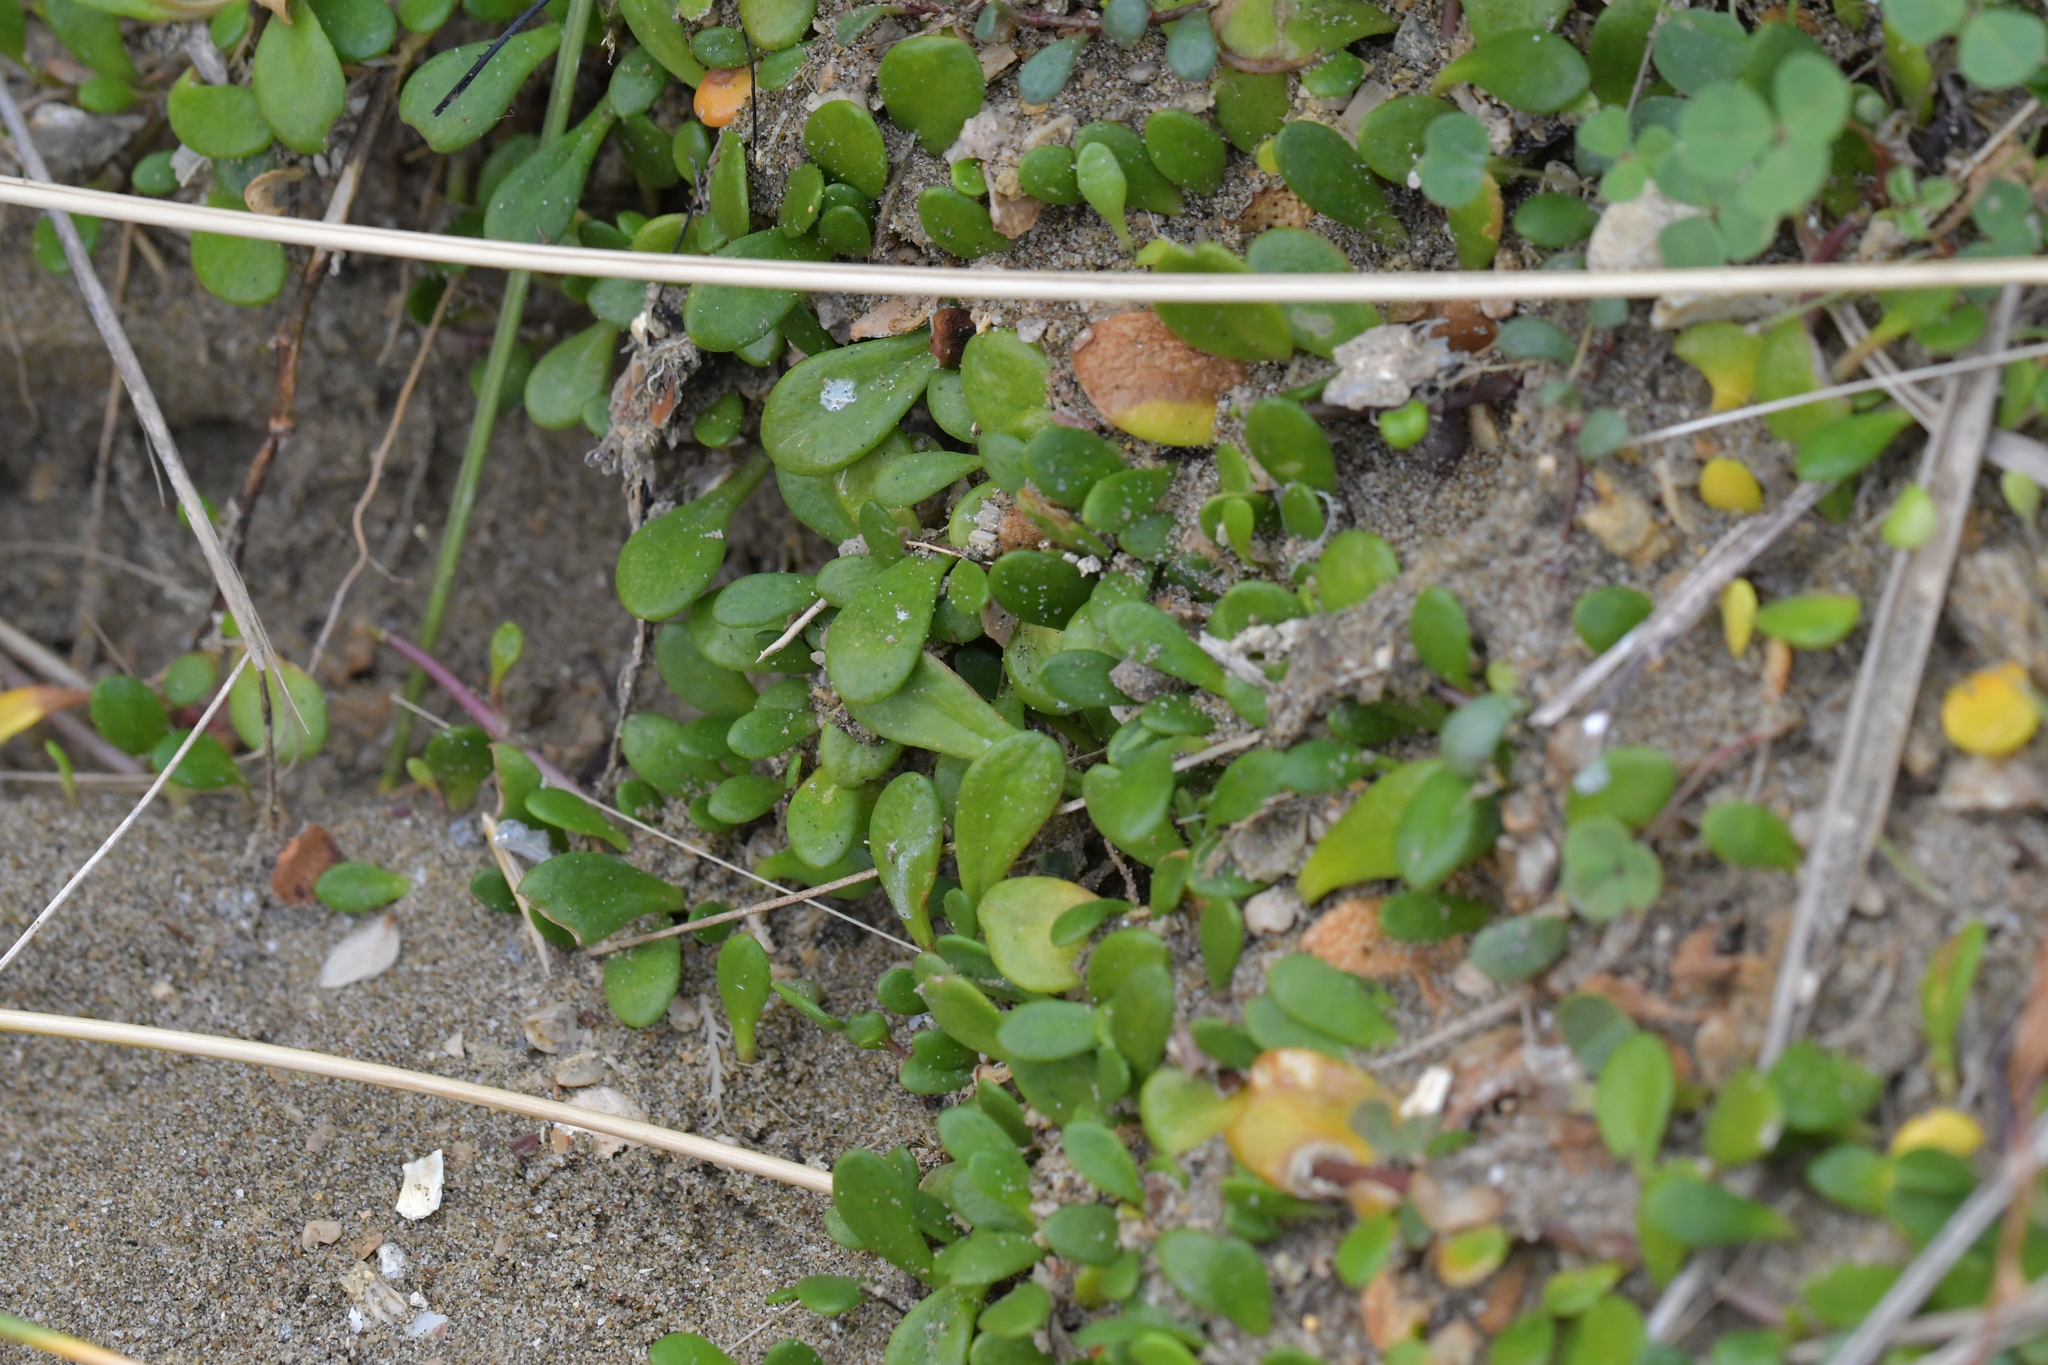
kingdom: Plantae
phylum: Tracheophyta
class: Magnoliopsida
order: Asterales
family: Goodeniaceae
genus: Goodenia
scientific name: Goodenia radicans
